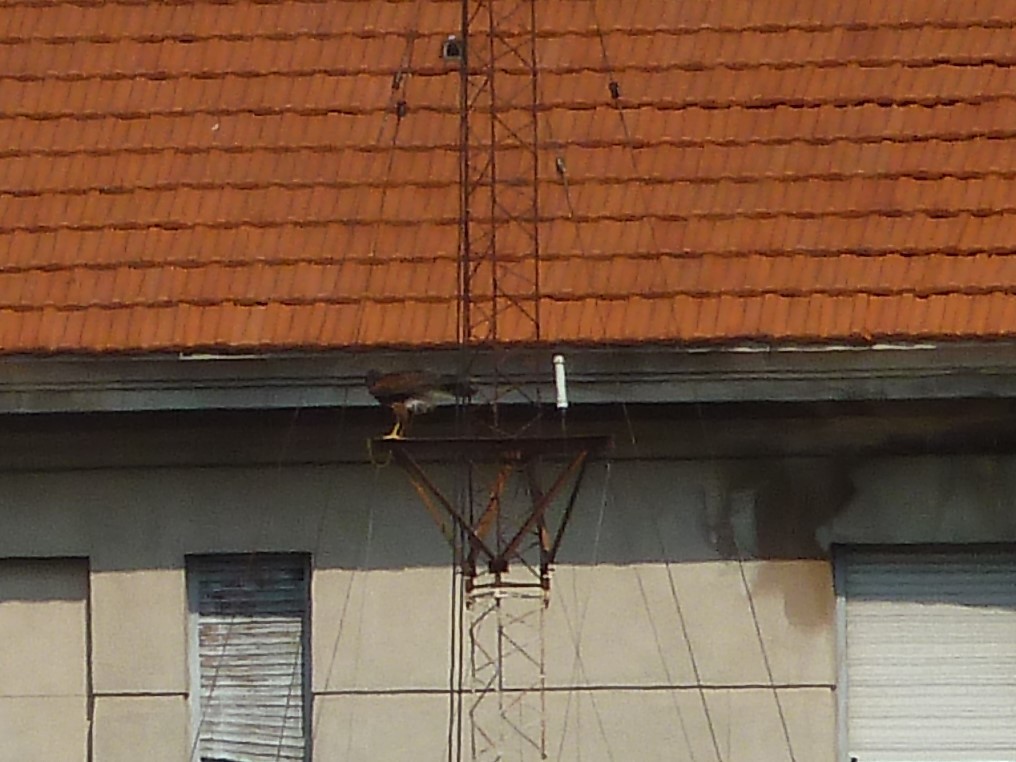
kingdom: Animalia
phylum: Chordata
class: Aves
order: Accipitriformes
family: Accipitridae
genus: Parabuteo
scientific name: Parabuteo unicinctus
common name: Harris's hawk
